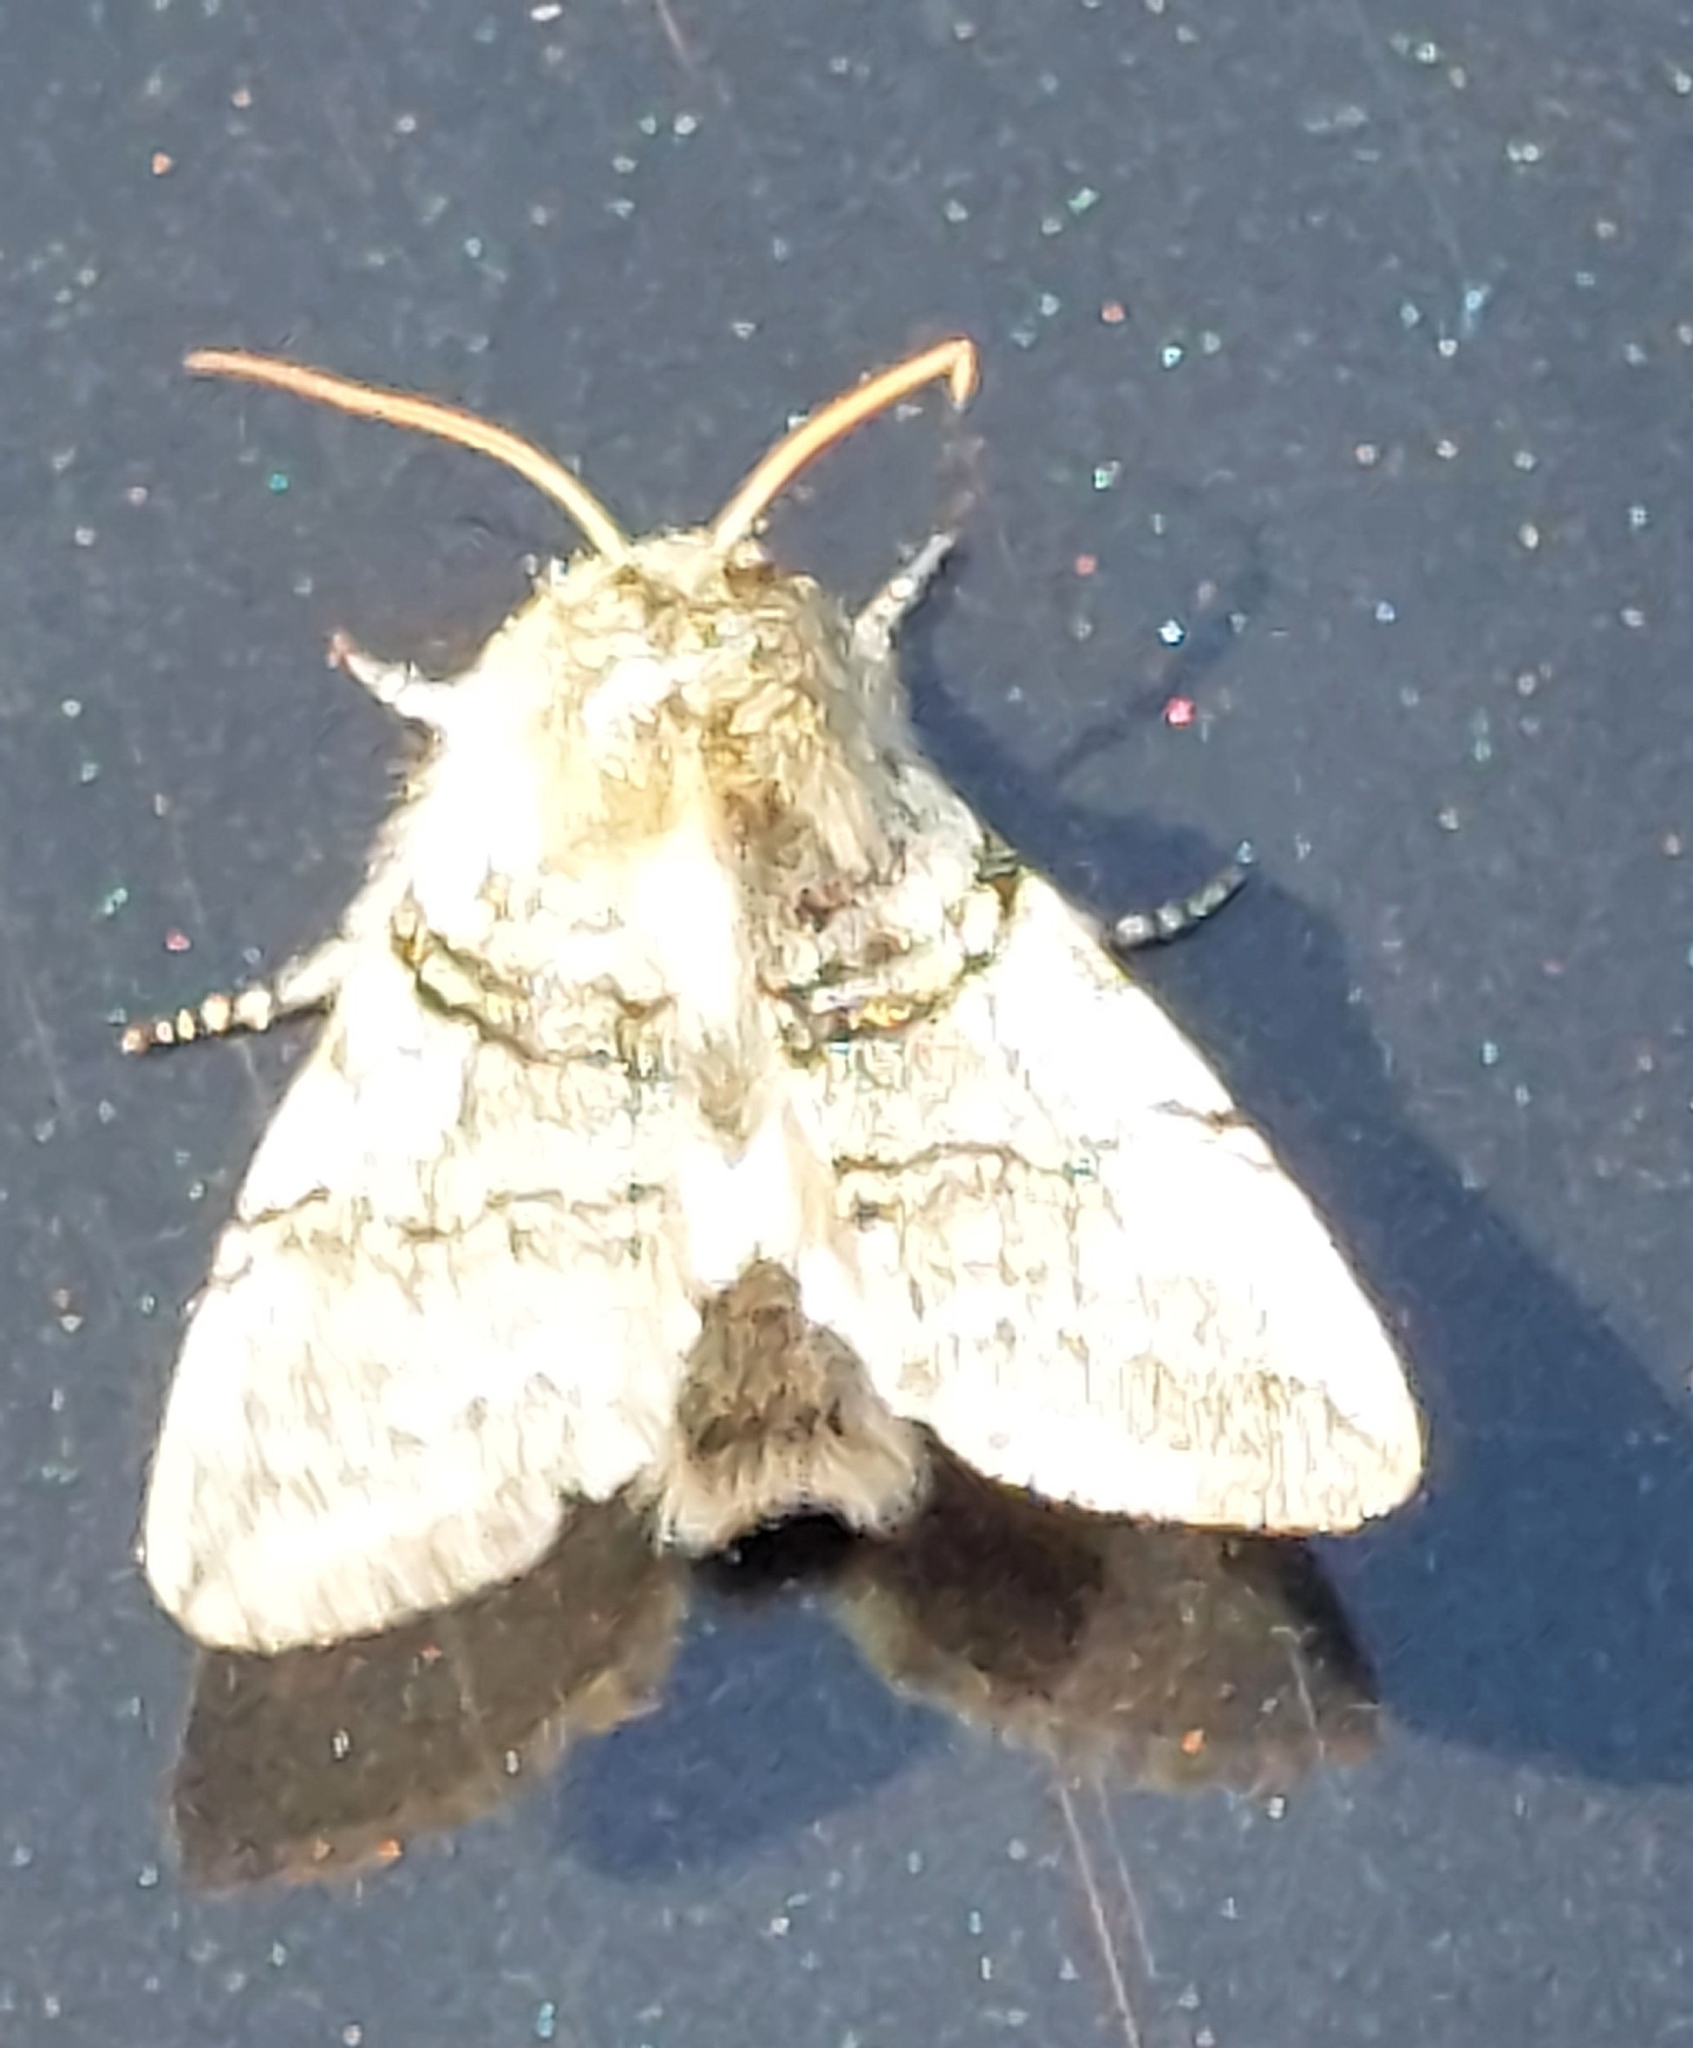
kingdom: Animalia
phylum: Arthropoda
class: Insecta
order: Lepidoptera
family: Drepanidae
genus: Achlya
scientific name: Achlya flavicornis
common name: Yellow horned
